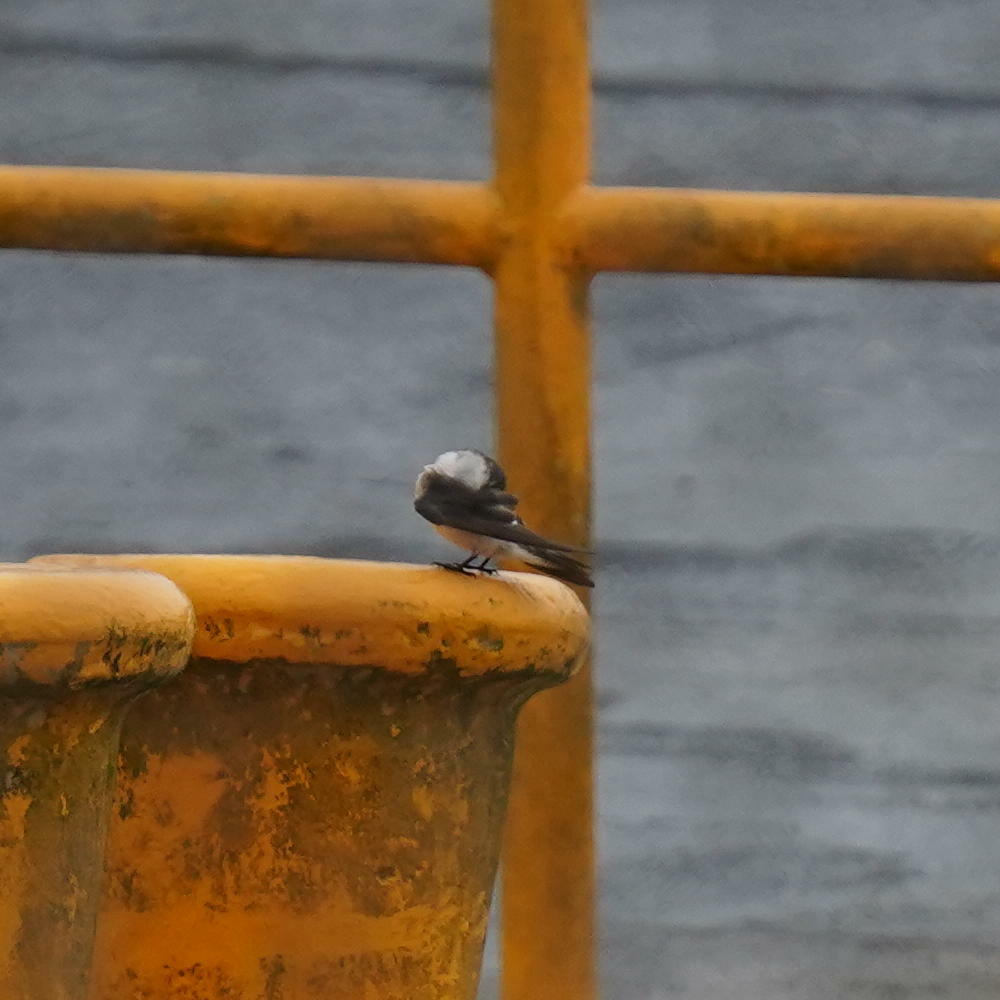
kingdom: Animalia
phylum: Chordata
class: Aves
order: Passeriformes
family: Hirundinidae
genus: Tachycineta
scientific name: Tachycineta albilinea
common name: Mangrove swallow
